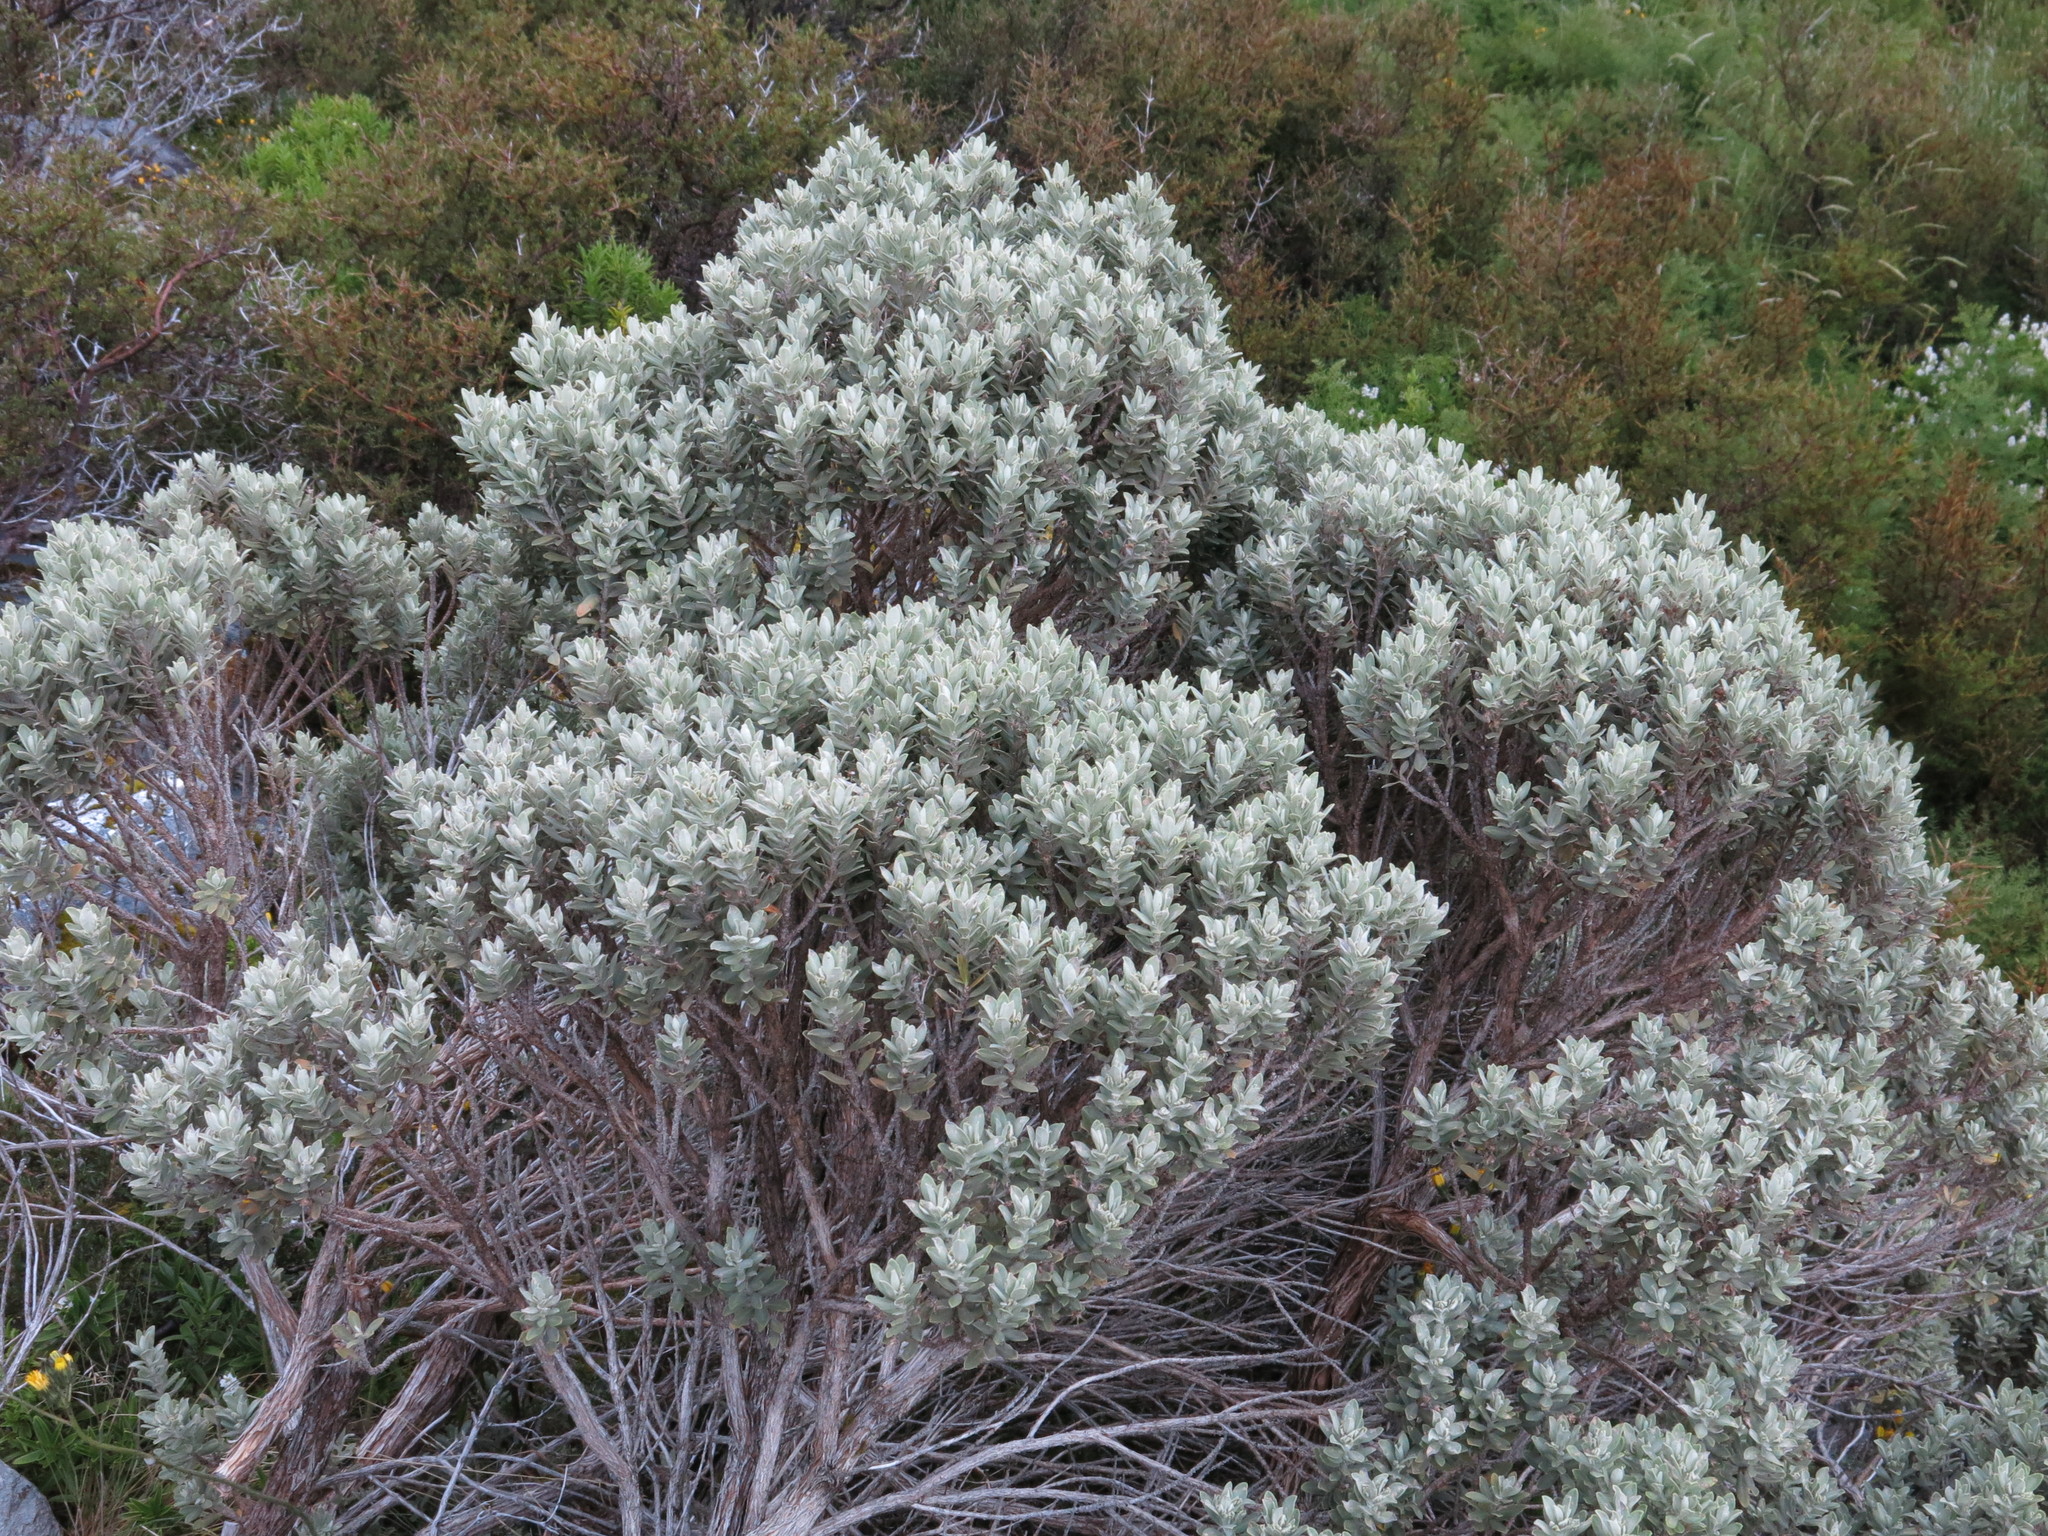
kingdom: Plantae
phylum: Tracheophyta
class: Magnoliopsida
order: Asterales
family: Asteraceae
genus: Olearia
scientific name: Olearia moschata
